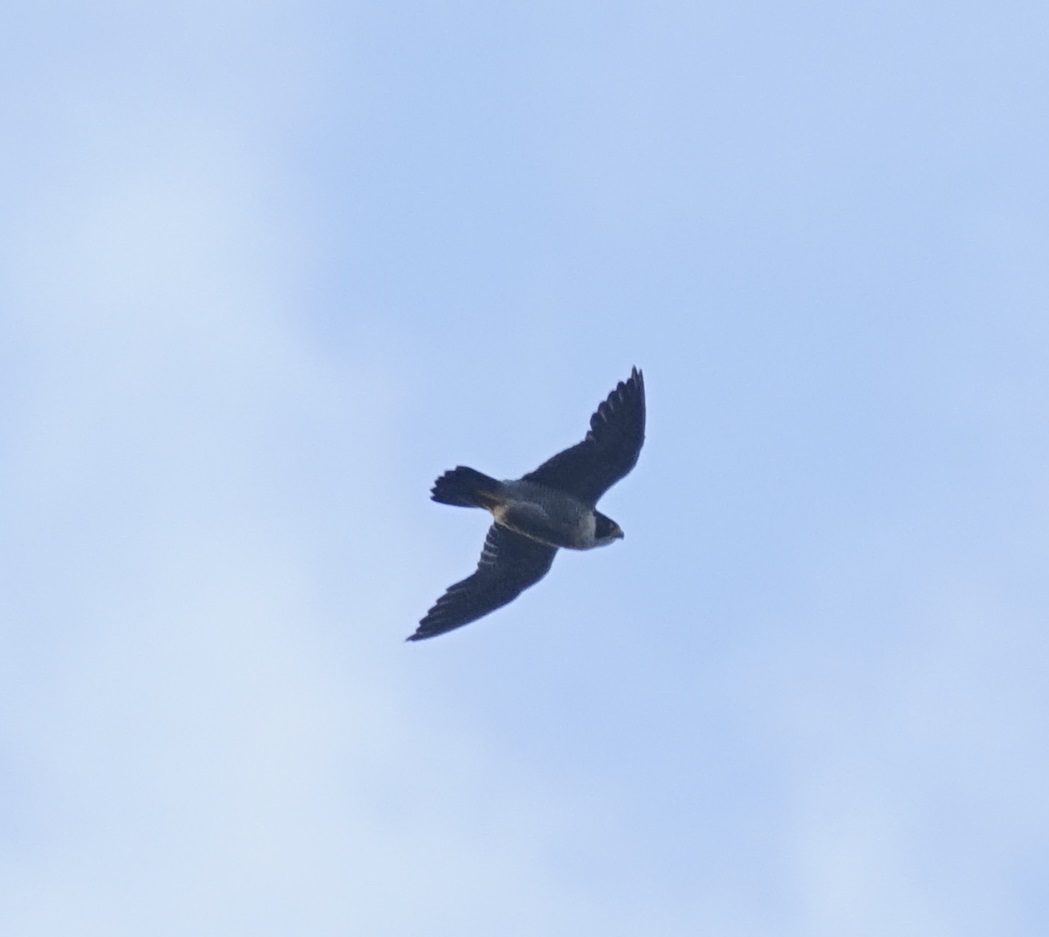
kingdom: Animalia
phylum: Chordata
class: Aves
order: Falconiformes
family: Falconidae
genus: Falco
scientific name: Falco peregrinus
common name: Peregrine falcon
